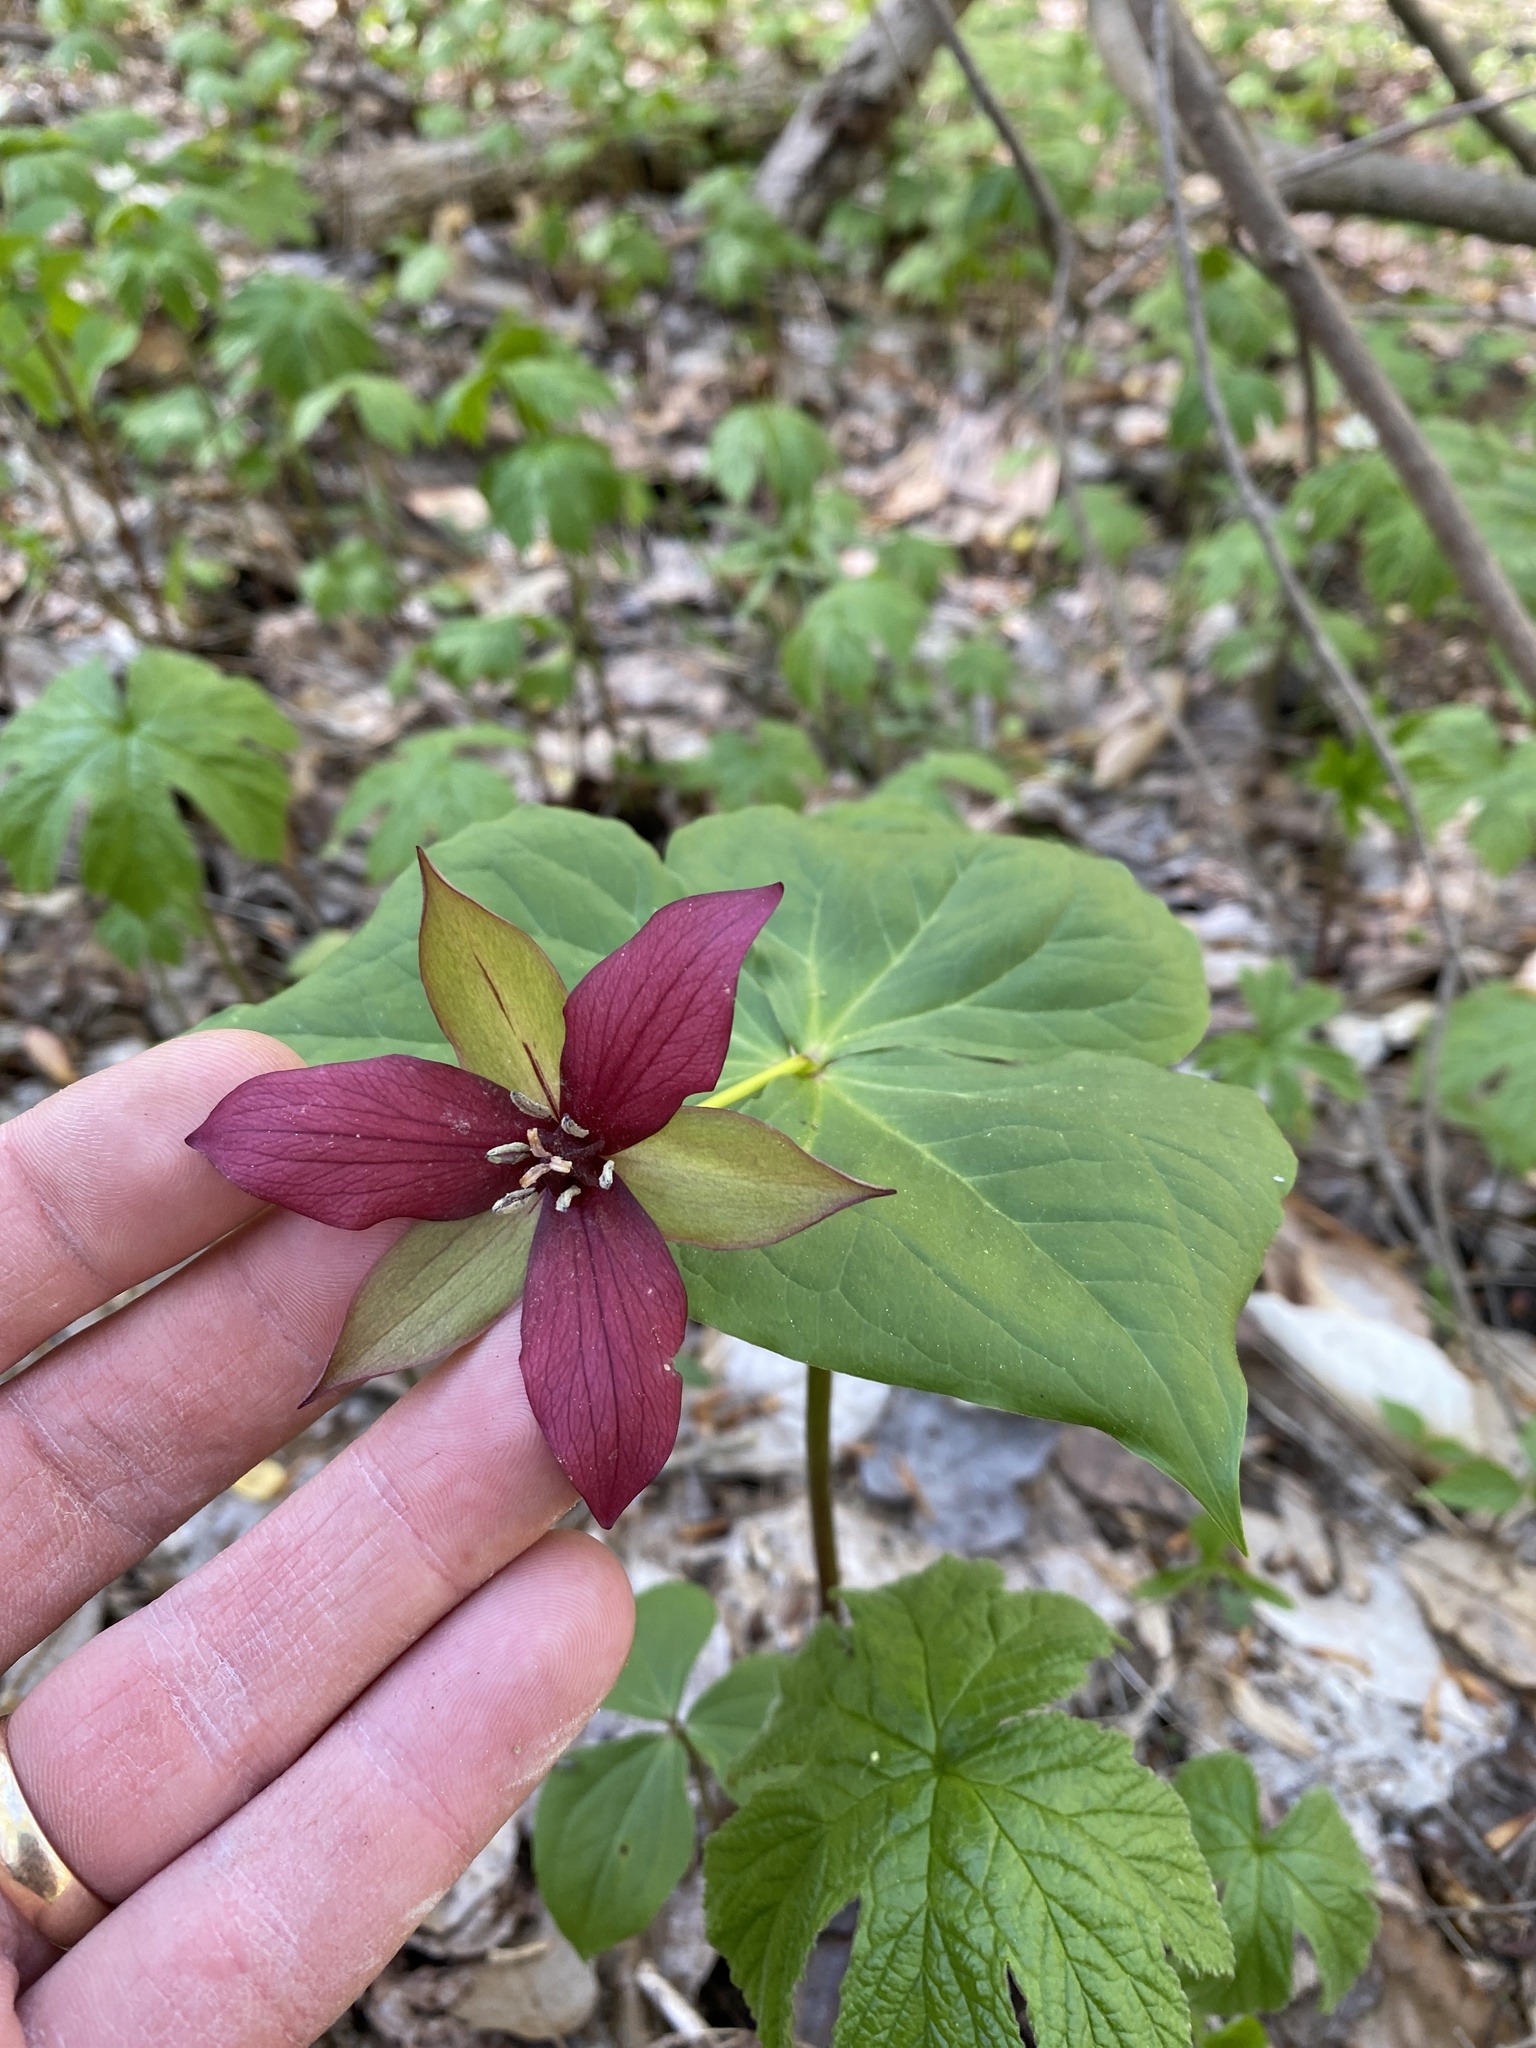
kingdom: Plantae
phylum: Tracheophyta
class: Liliopsida
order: Liliales
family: Melanthiaceae
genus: Trillium
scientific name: Trillium erectum
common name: Purple trillium
